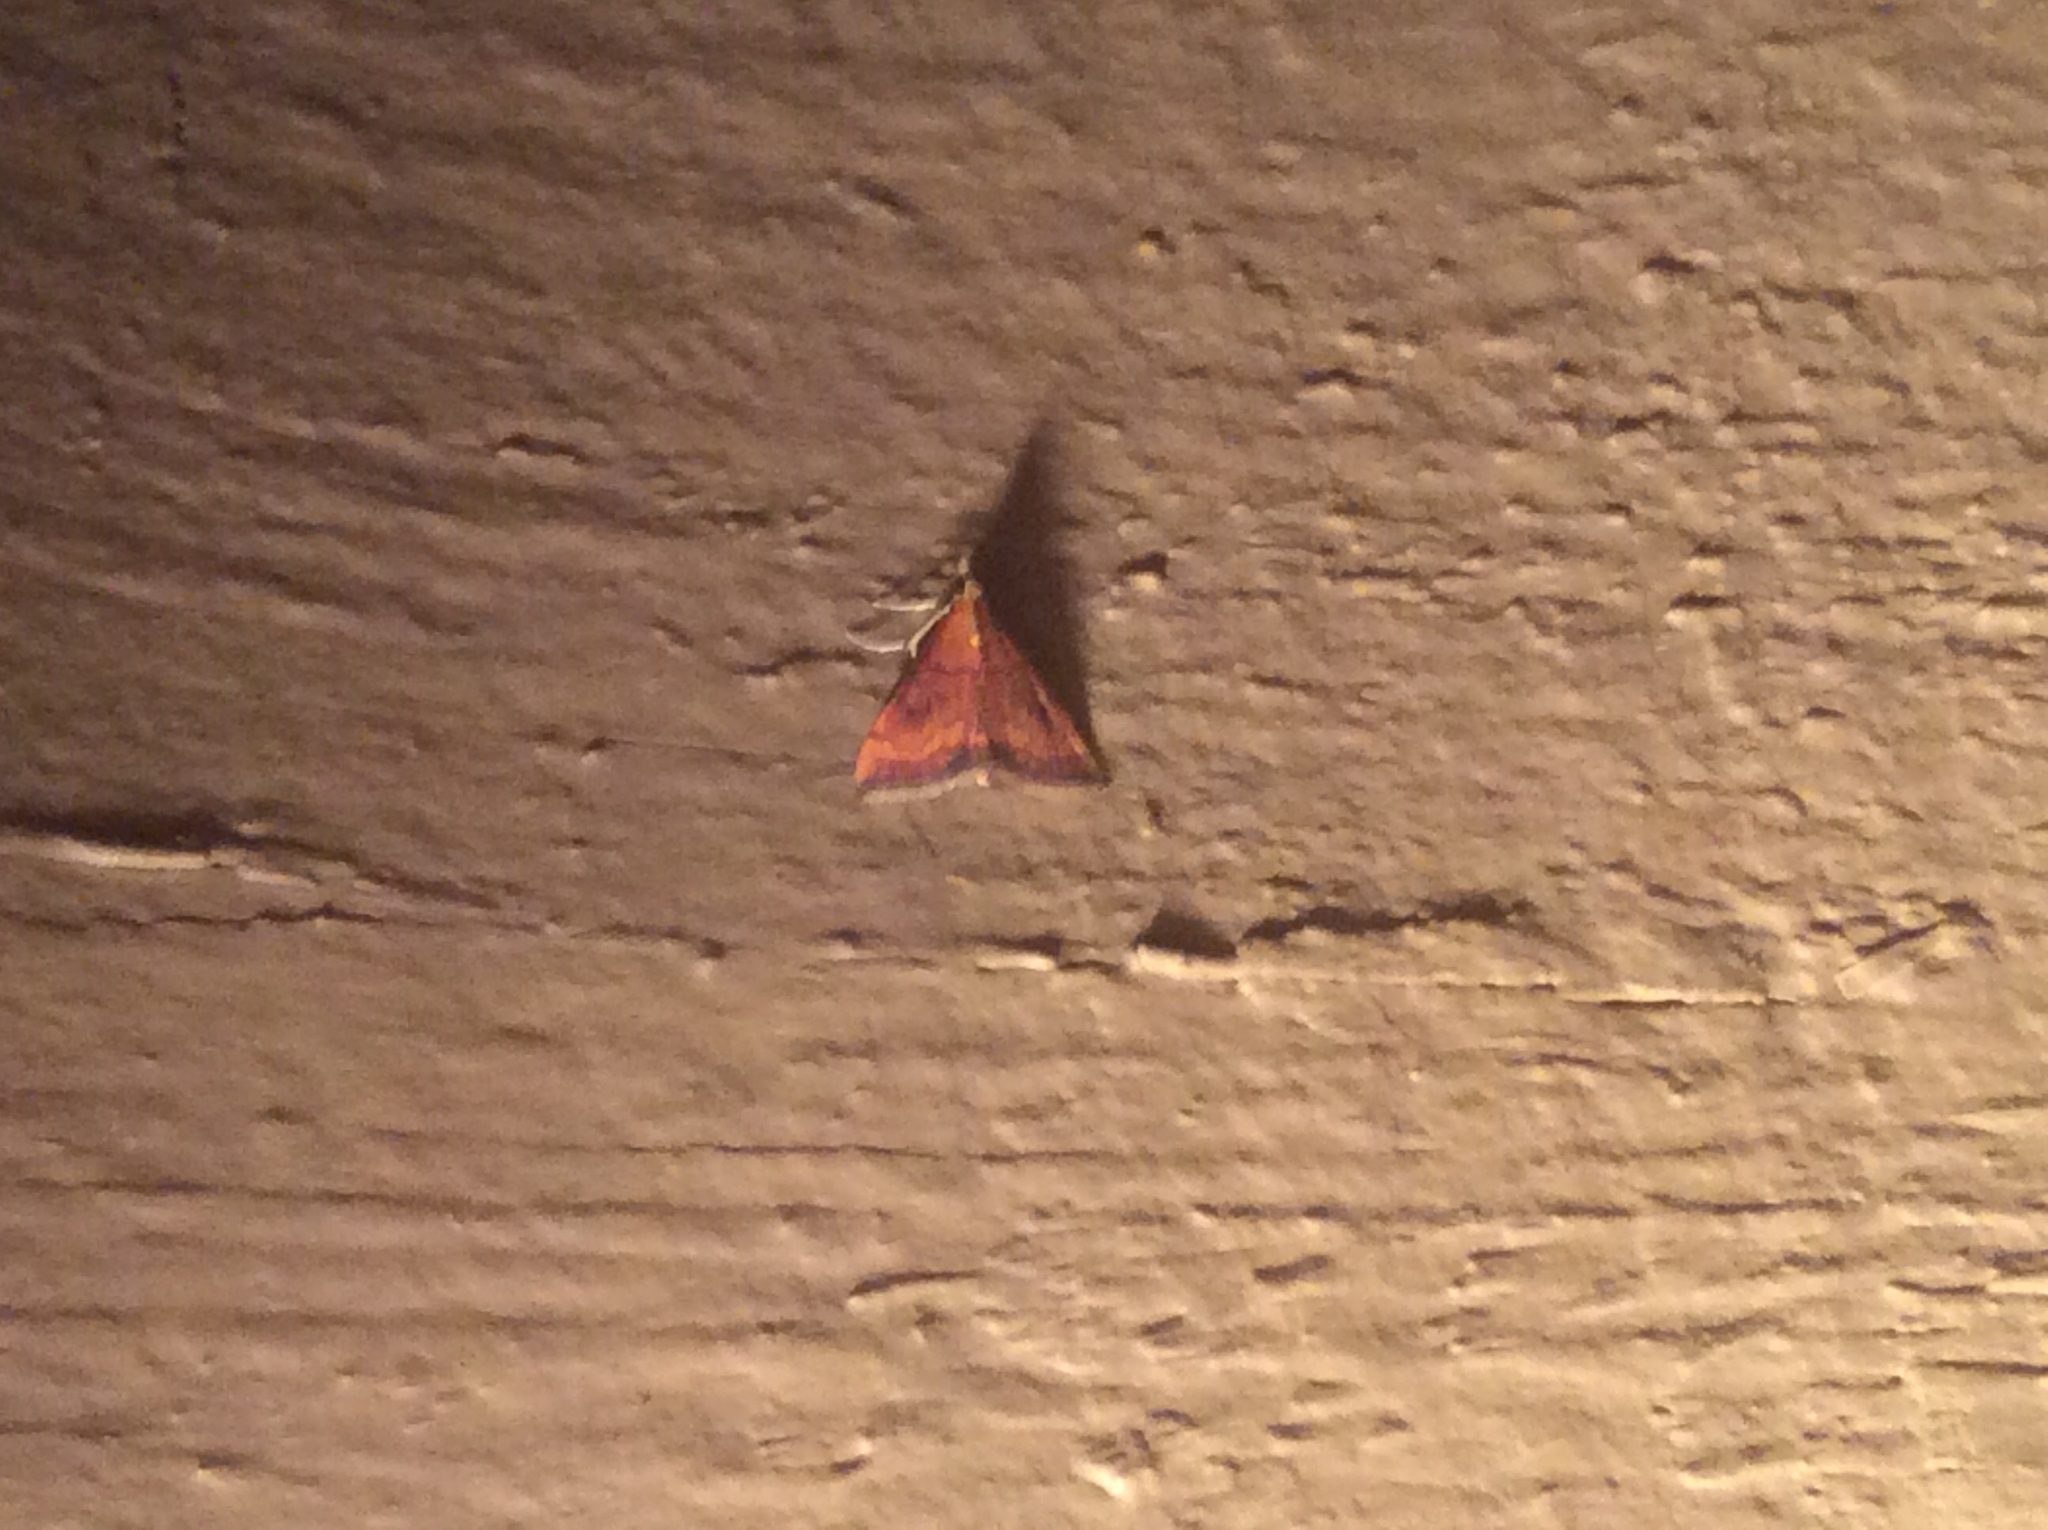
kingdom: Animalia
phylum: Arthropoda
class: Insecta
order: Lepidoptera
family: Crambidae
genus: Pyrausta
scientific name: Pyrausta rubricalis
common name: Variable reddish pyrausta
